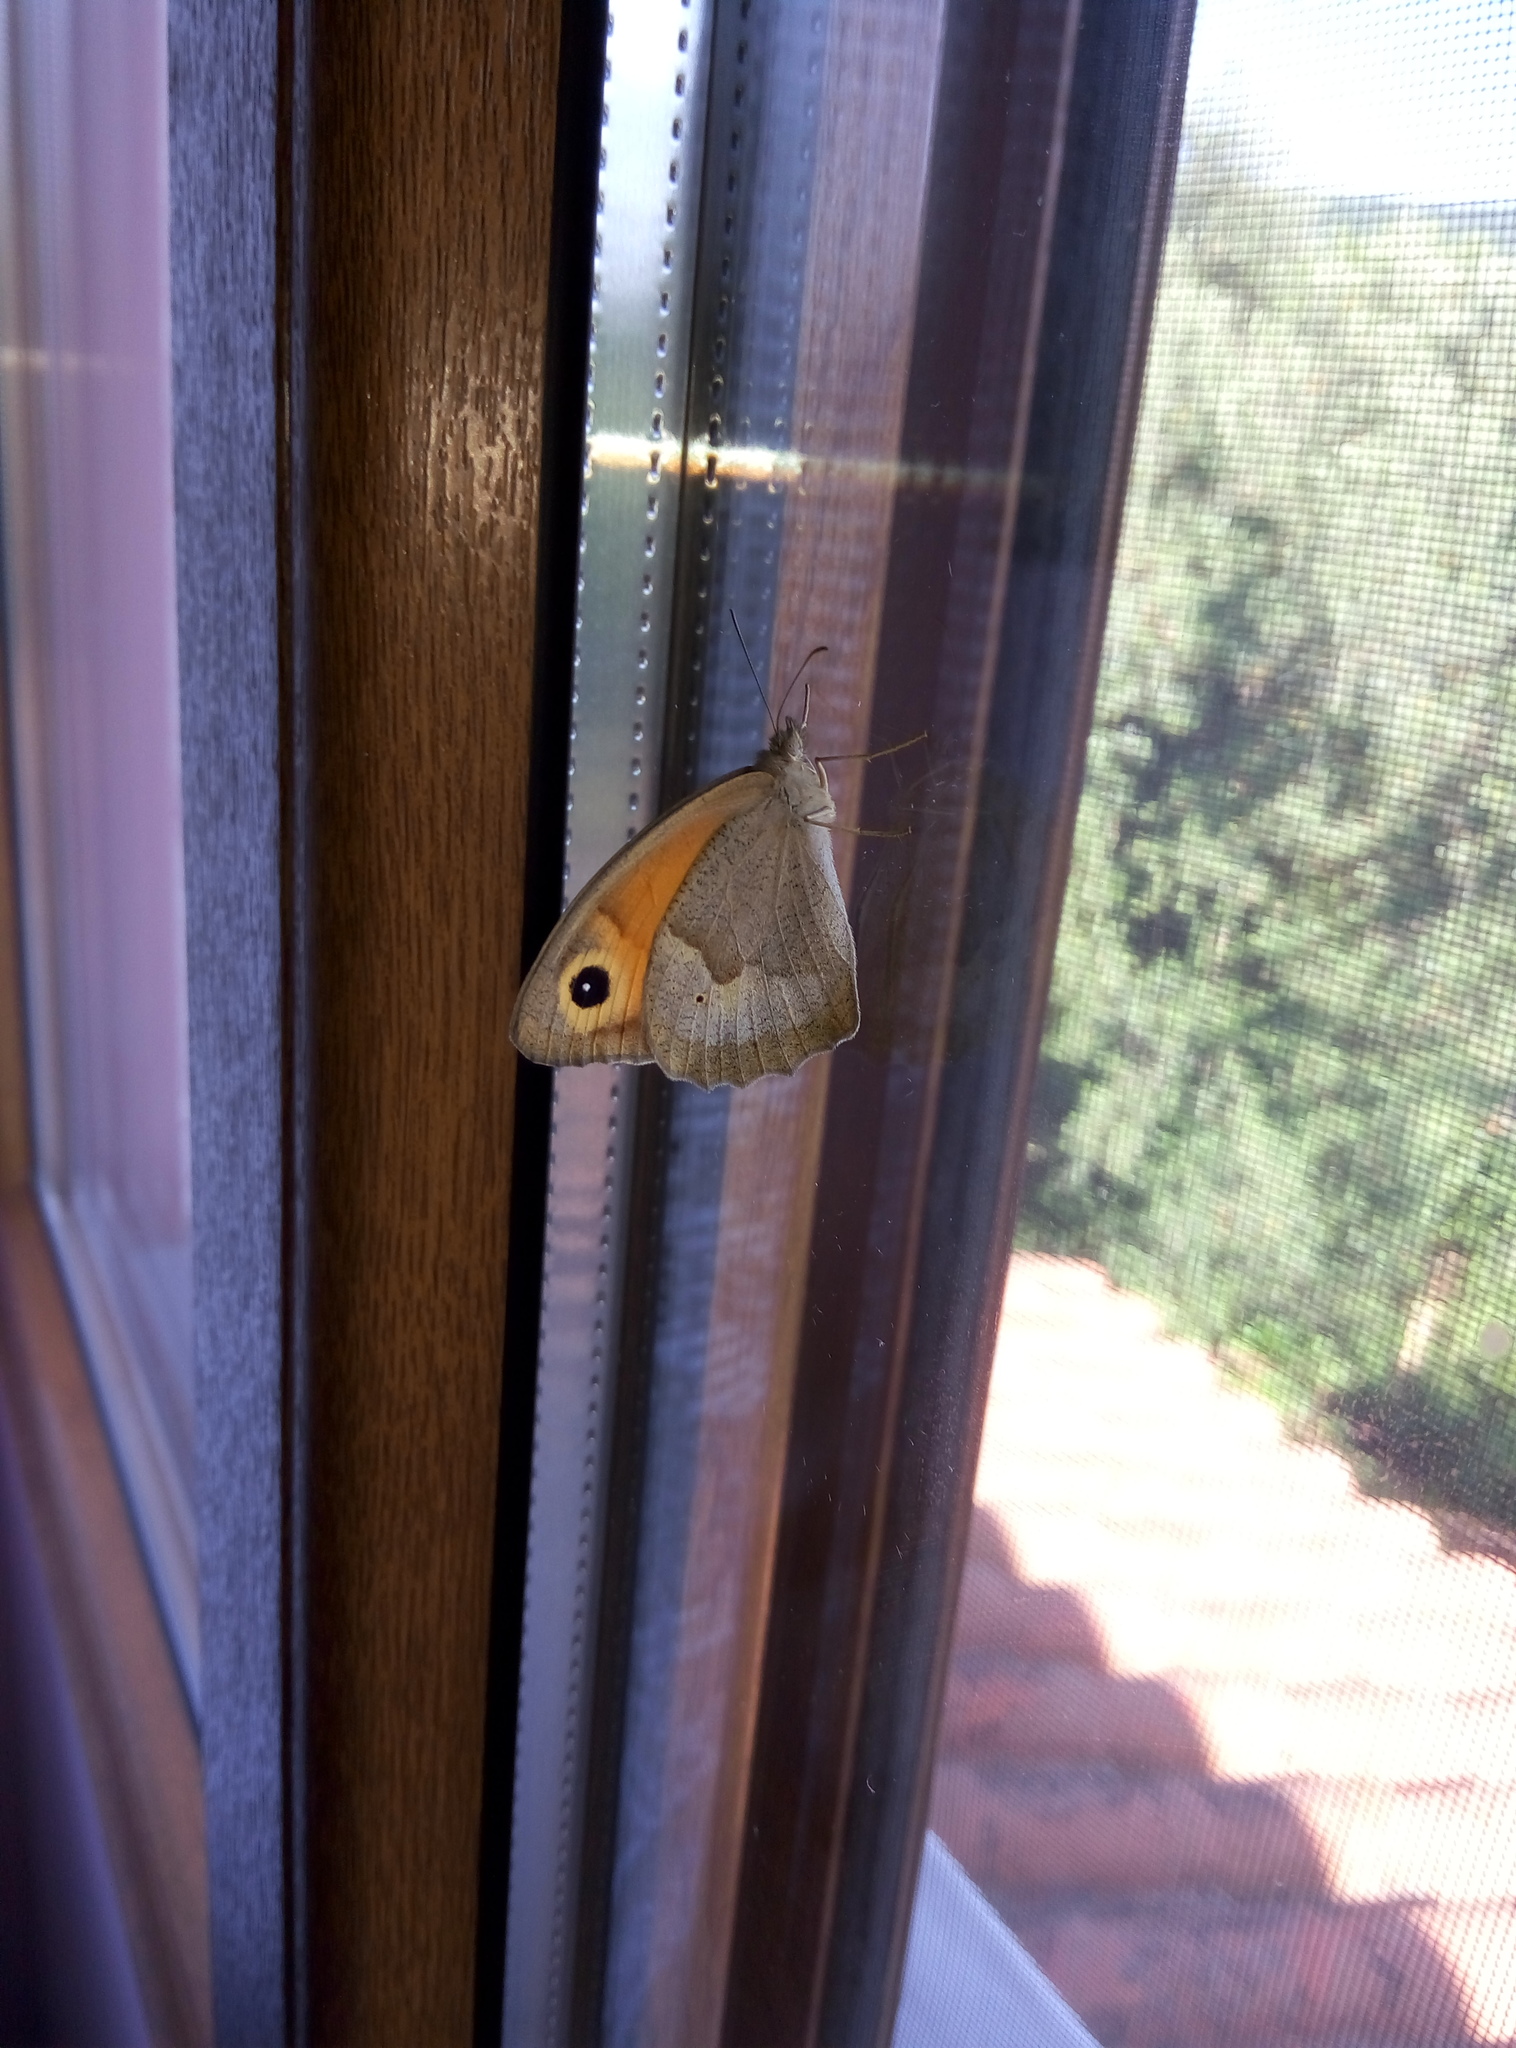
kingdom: Animalia
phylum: Arthropoda
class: Insecta
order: Lepidoptera
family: Nymphalidae
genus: Maniola
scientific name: Maniola jurtina
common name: Meadow brown
